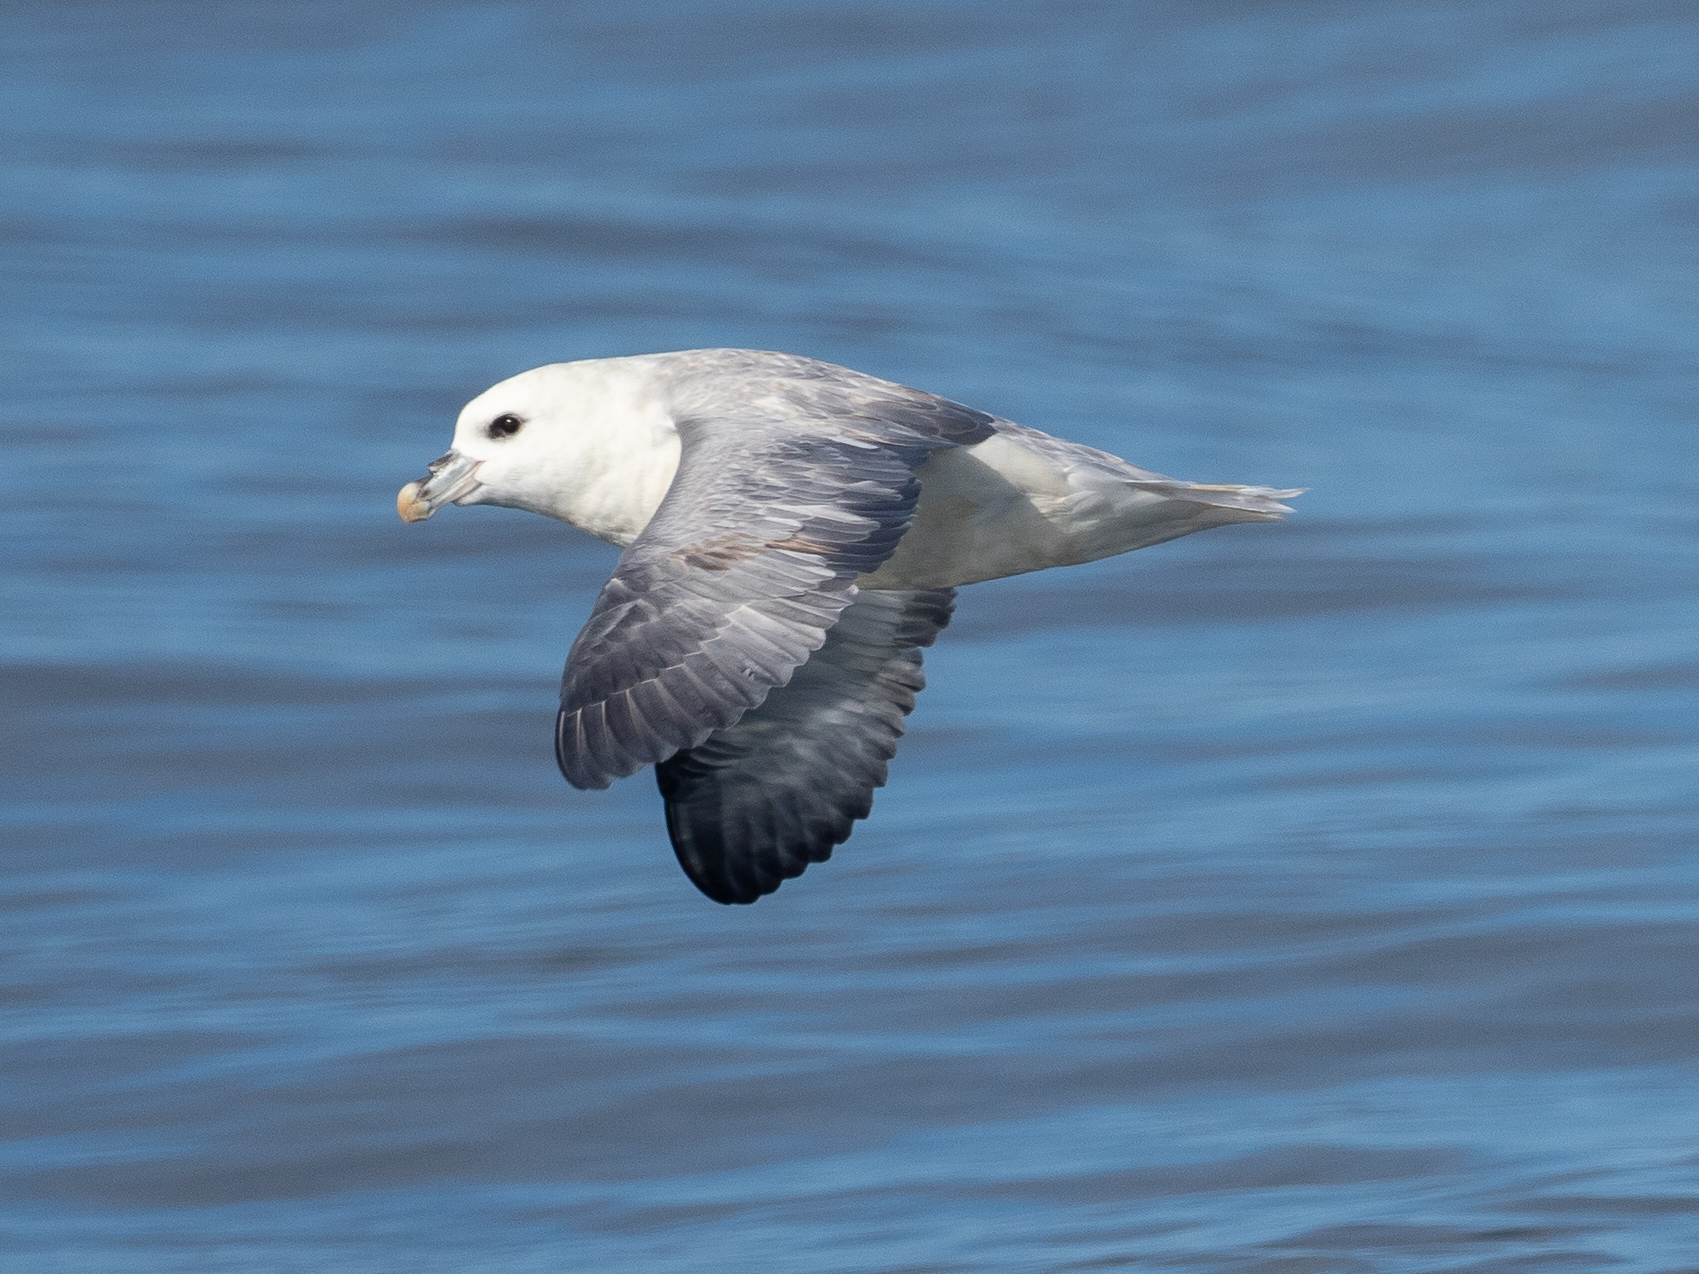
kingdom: Animalia
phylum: Chordata
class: Aves
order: Procellariiformes
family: Procellariidae
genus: Fulmarus
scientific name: Fulmarus glacialis
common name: Northern fulmar
